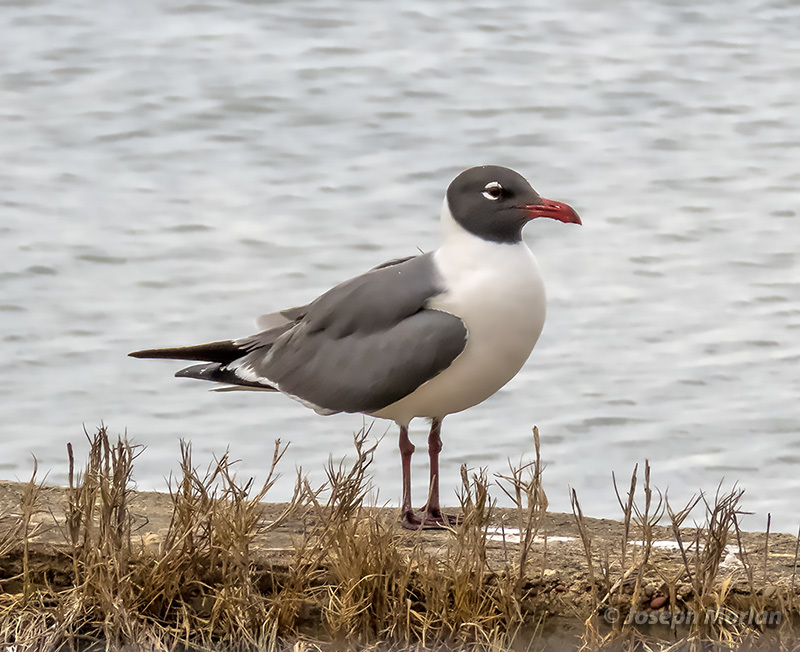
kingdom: Animalia
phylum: Chordata
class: Aves
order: Charadriiformes
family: Laridae
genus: Leucophaeus
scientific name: Leucophaeus atricilla
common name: Laughing gull
